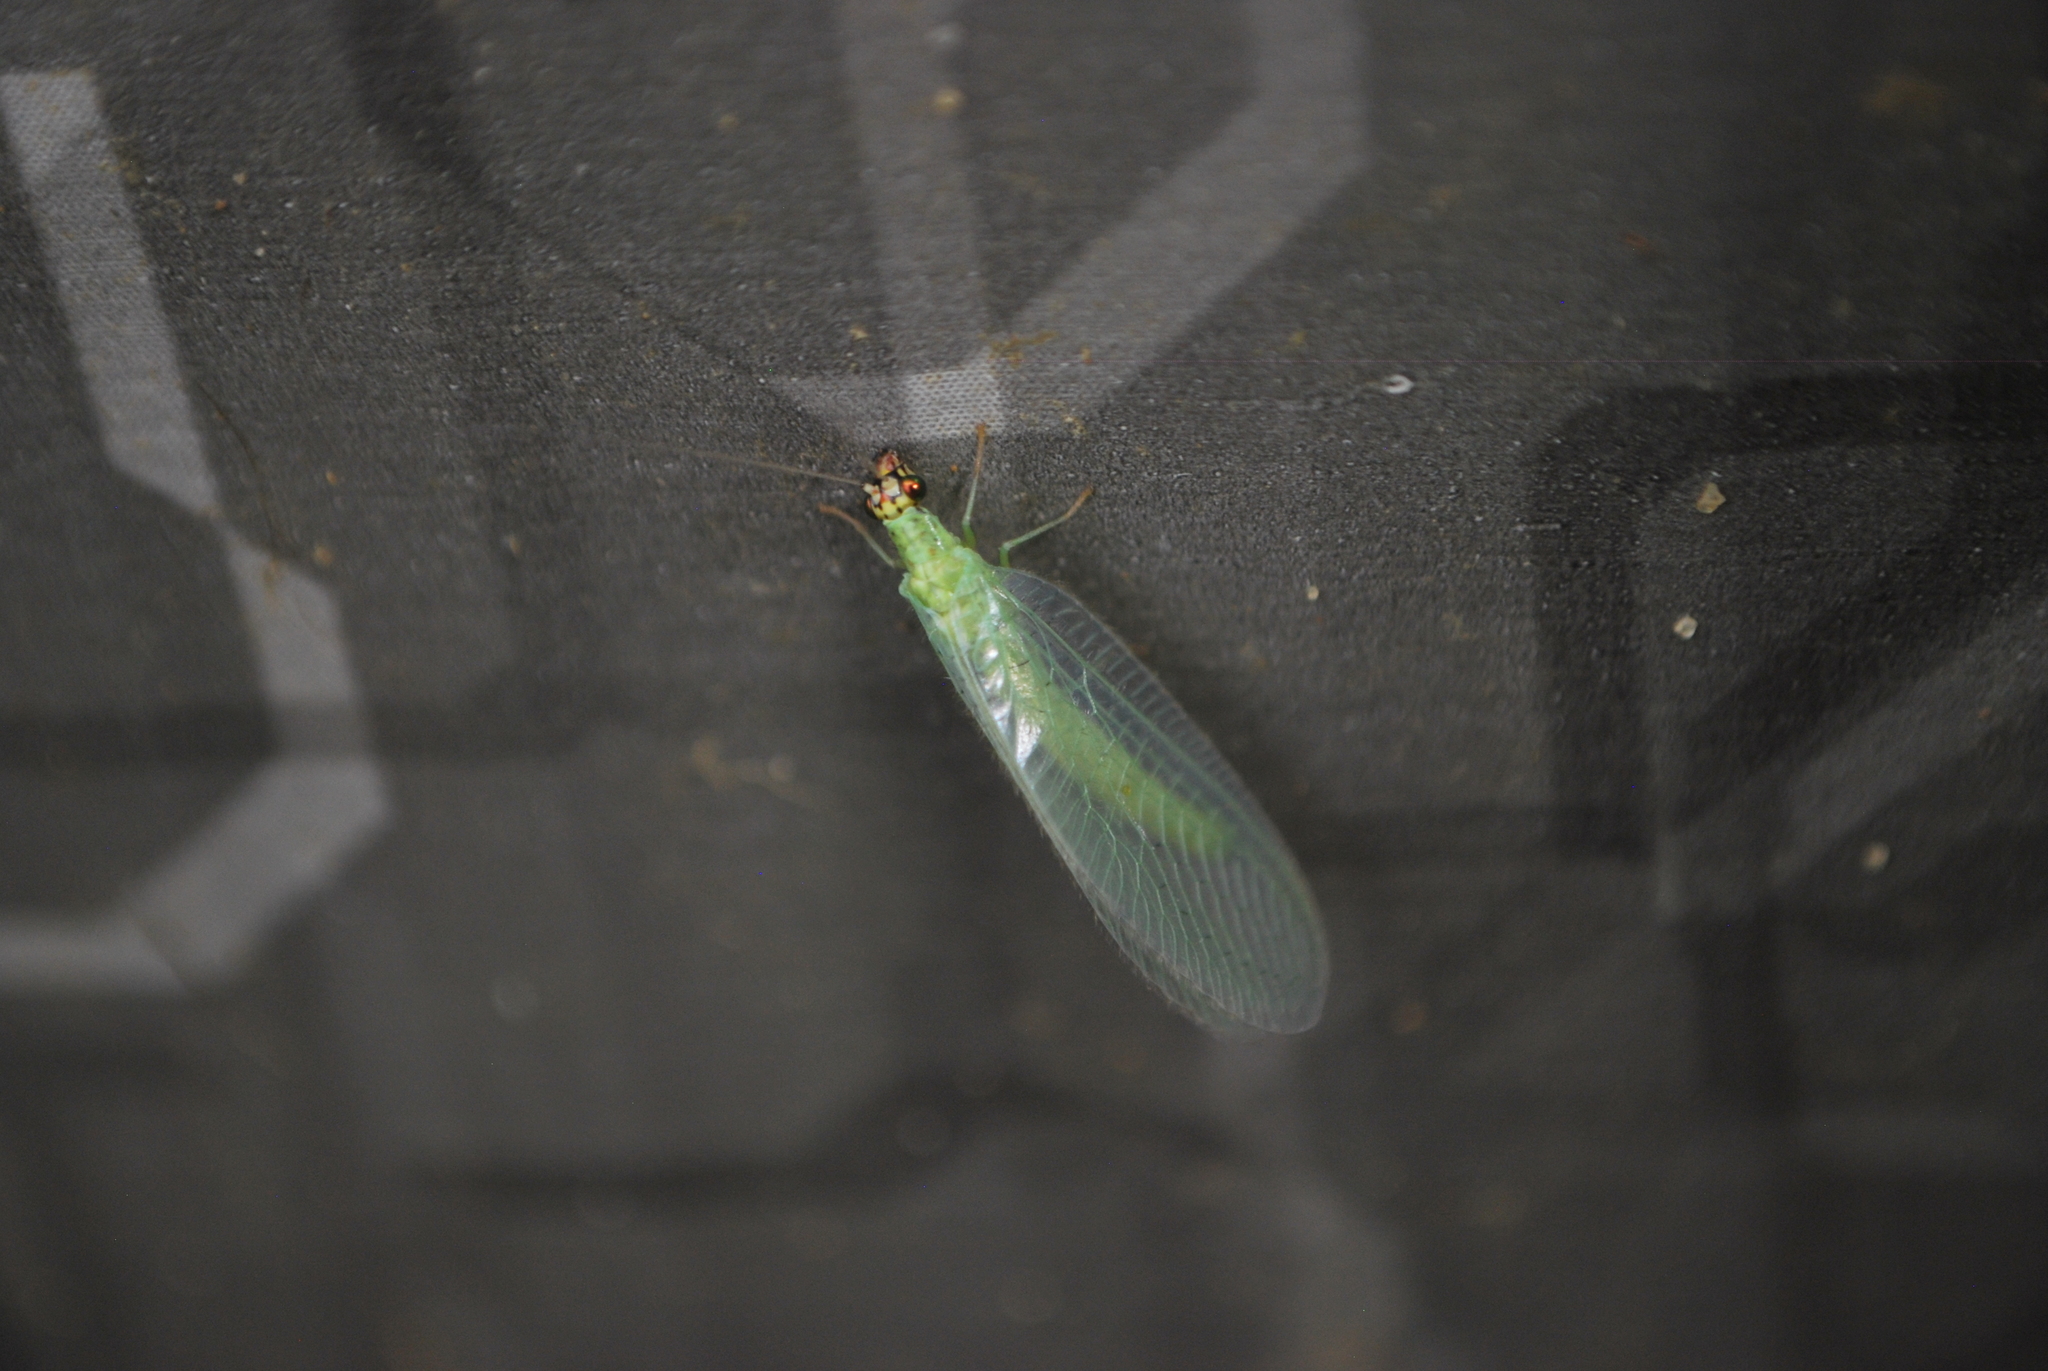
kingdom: Animalia
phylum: Arthropoda
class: Insecta
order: Neuroptera
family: Chrysopidae
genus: Chrysopa
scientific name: Chrysopa oculata
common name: Golden-eyed lacewing
